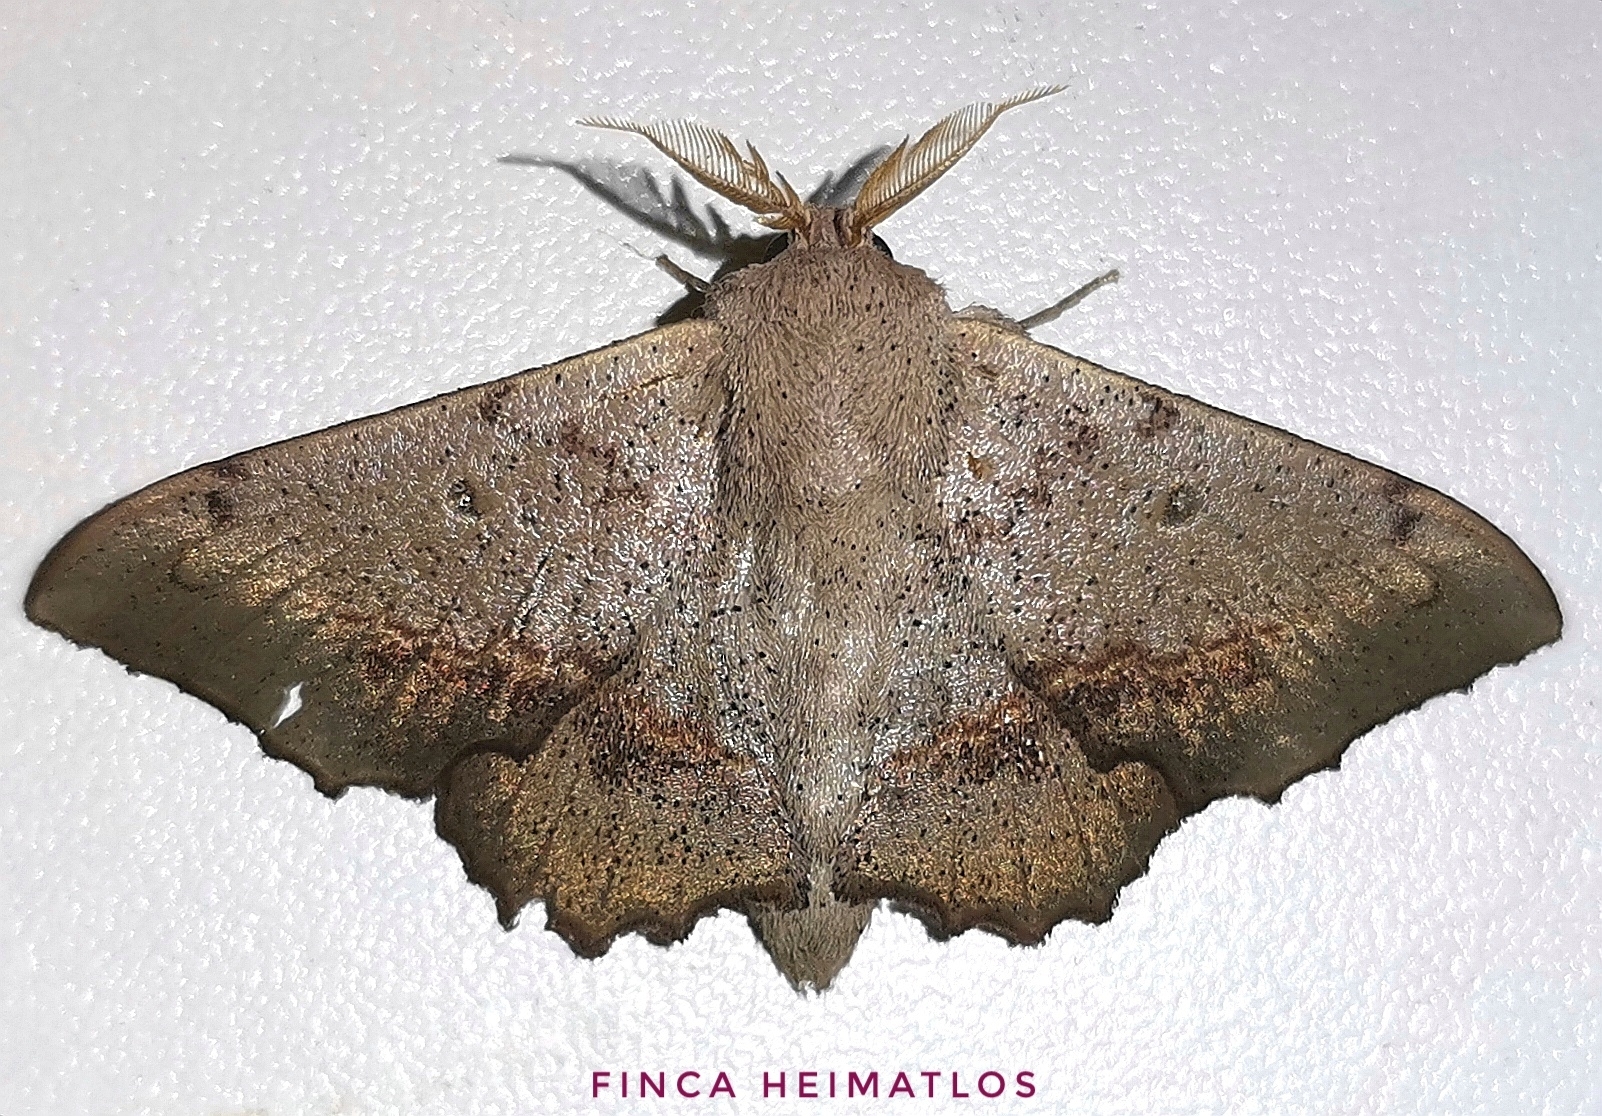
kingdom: Animalia
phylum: Arthropoda
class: Insecta
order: Lepidoptera
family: Mimallonidae
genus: Mimallo
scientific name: Mimallo brosica
